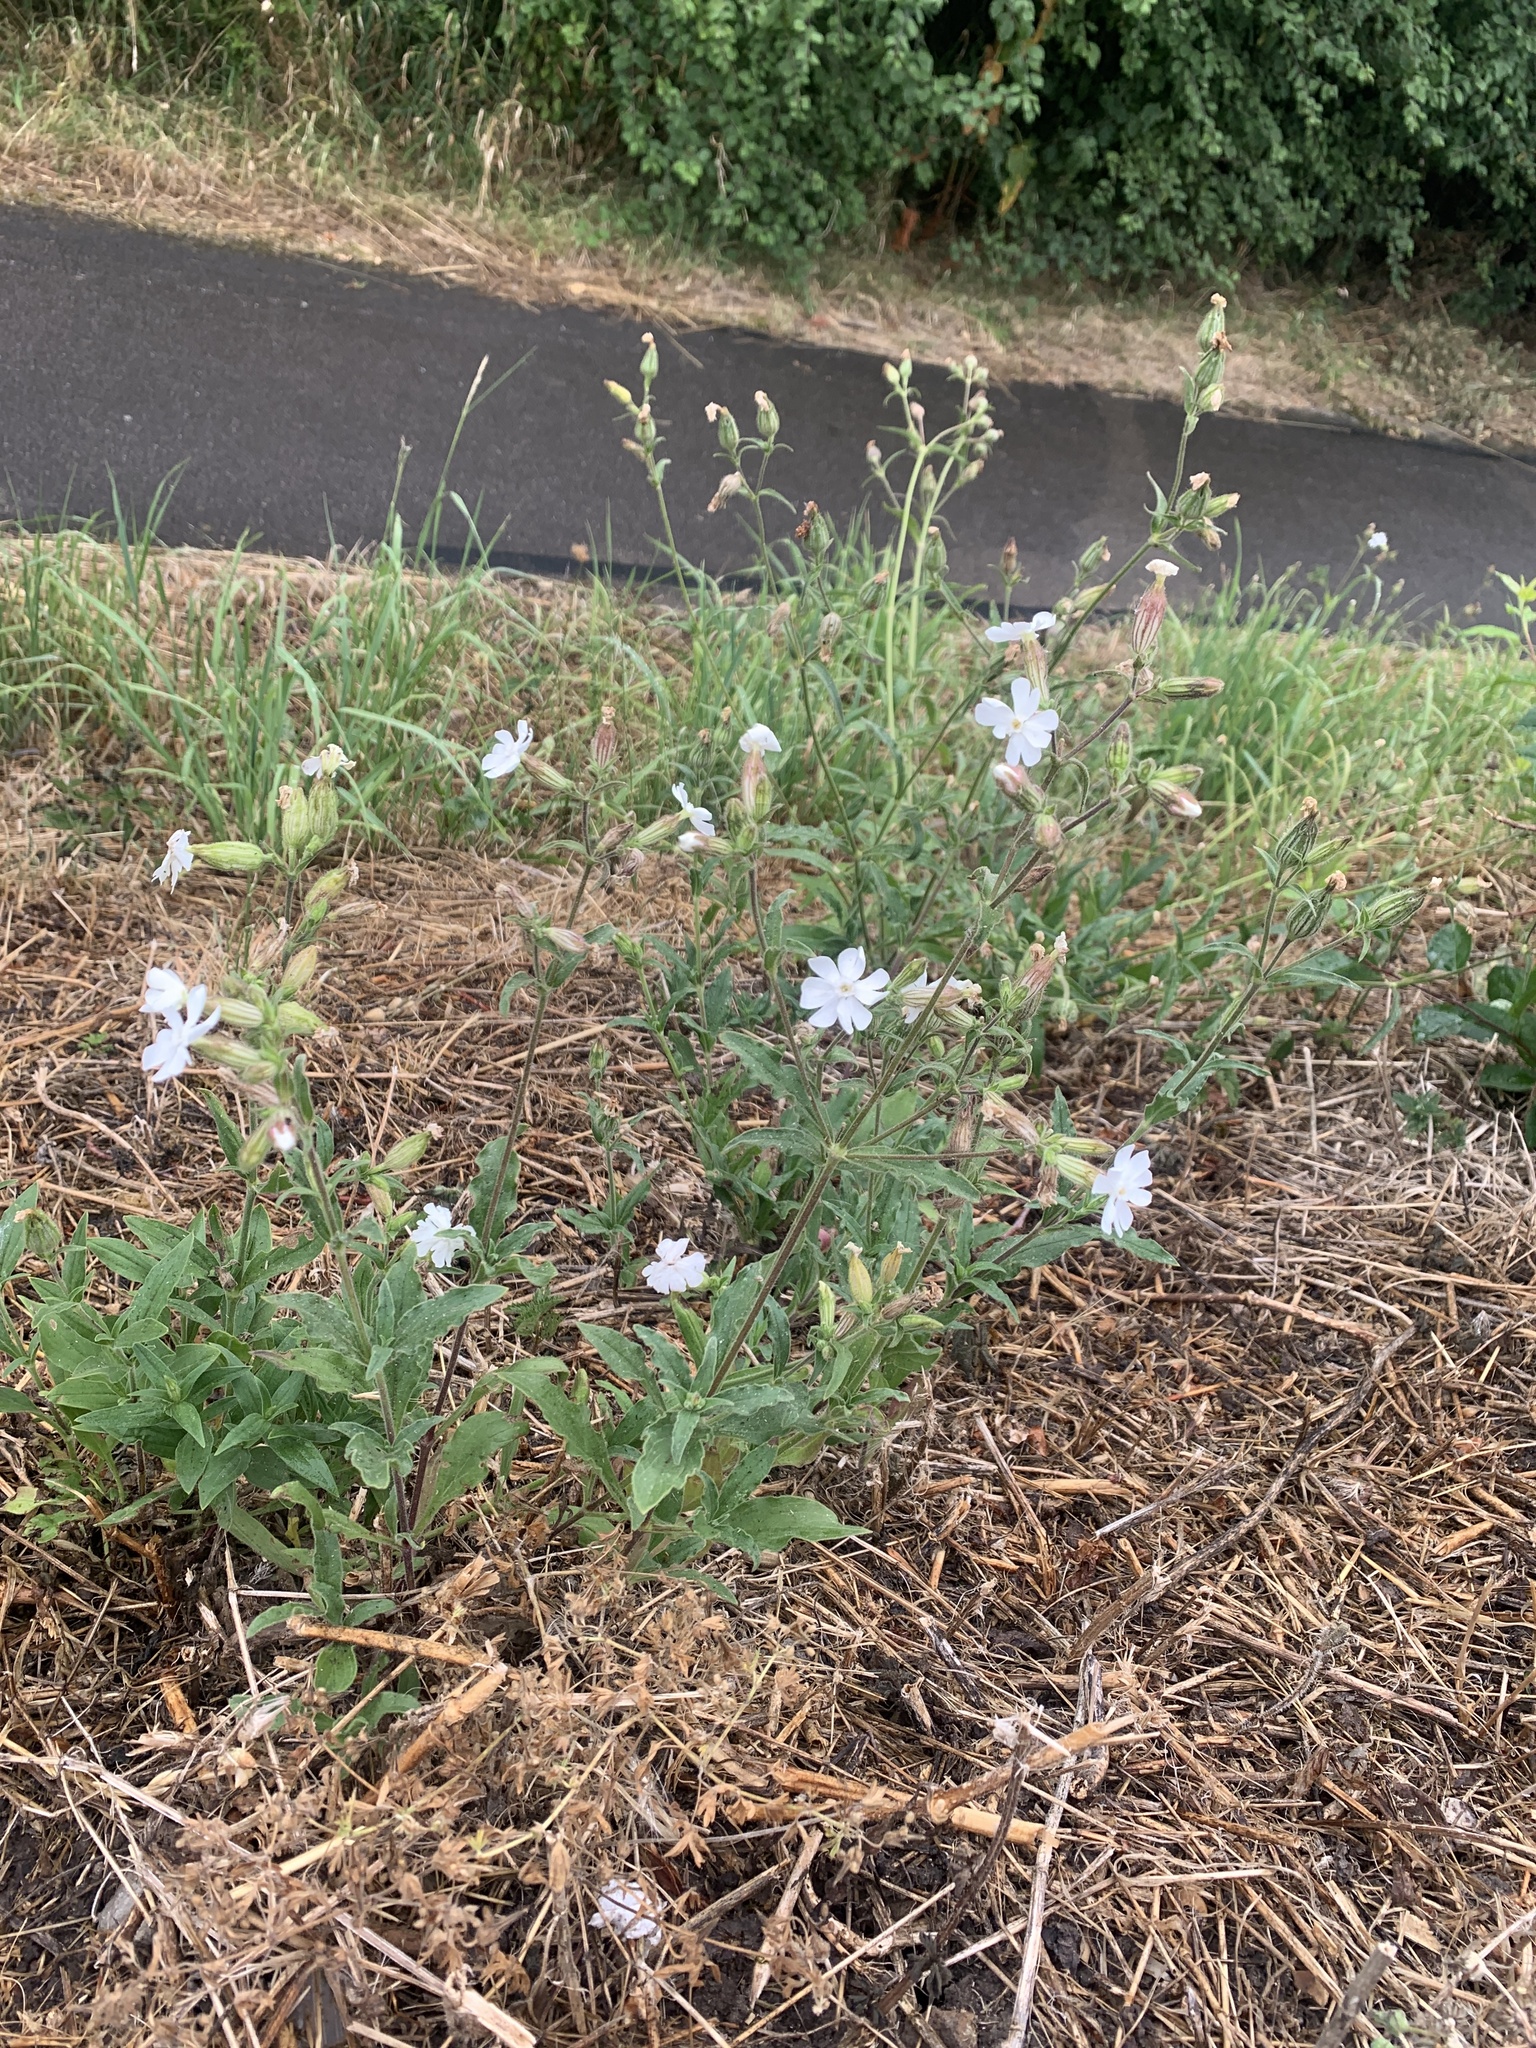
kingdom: Plantae
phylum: Tracheophyta
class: Magnoliopsida
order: Caryophyllales
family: Caryophyllaceae
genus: Silene
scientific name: Silene latifolia
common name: White campion
